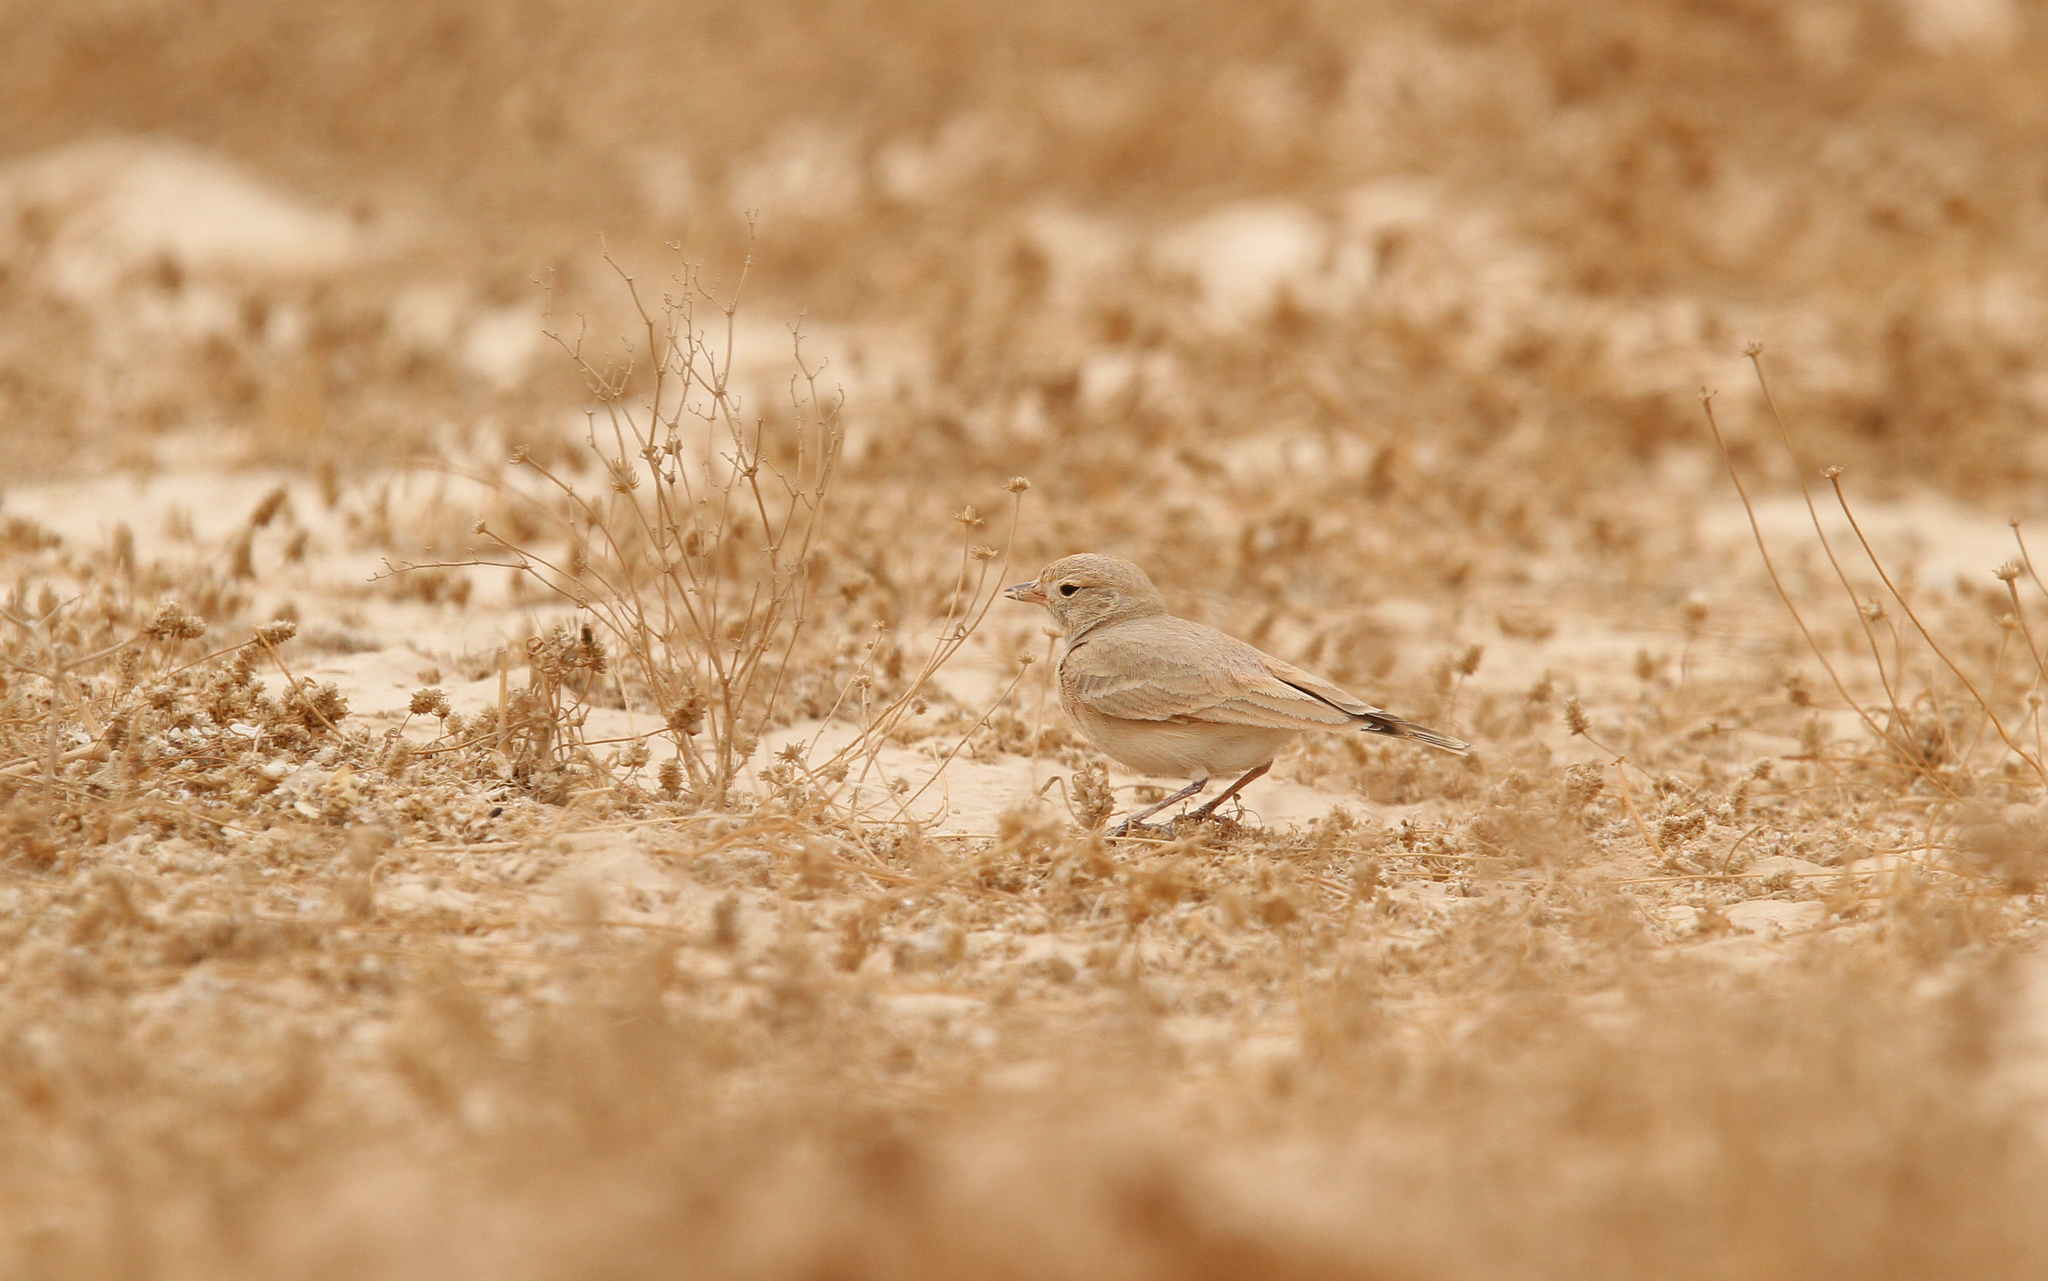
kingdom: Animalia
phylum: Chordata
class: Aves
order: Passeriformes
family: Alaudidae
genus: Ammomanes
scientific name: Ammomanes cinctura
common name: Bar-tailed lark
